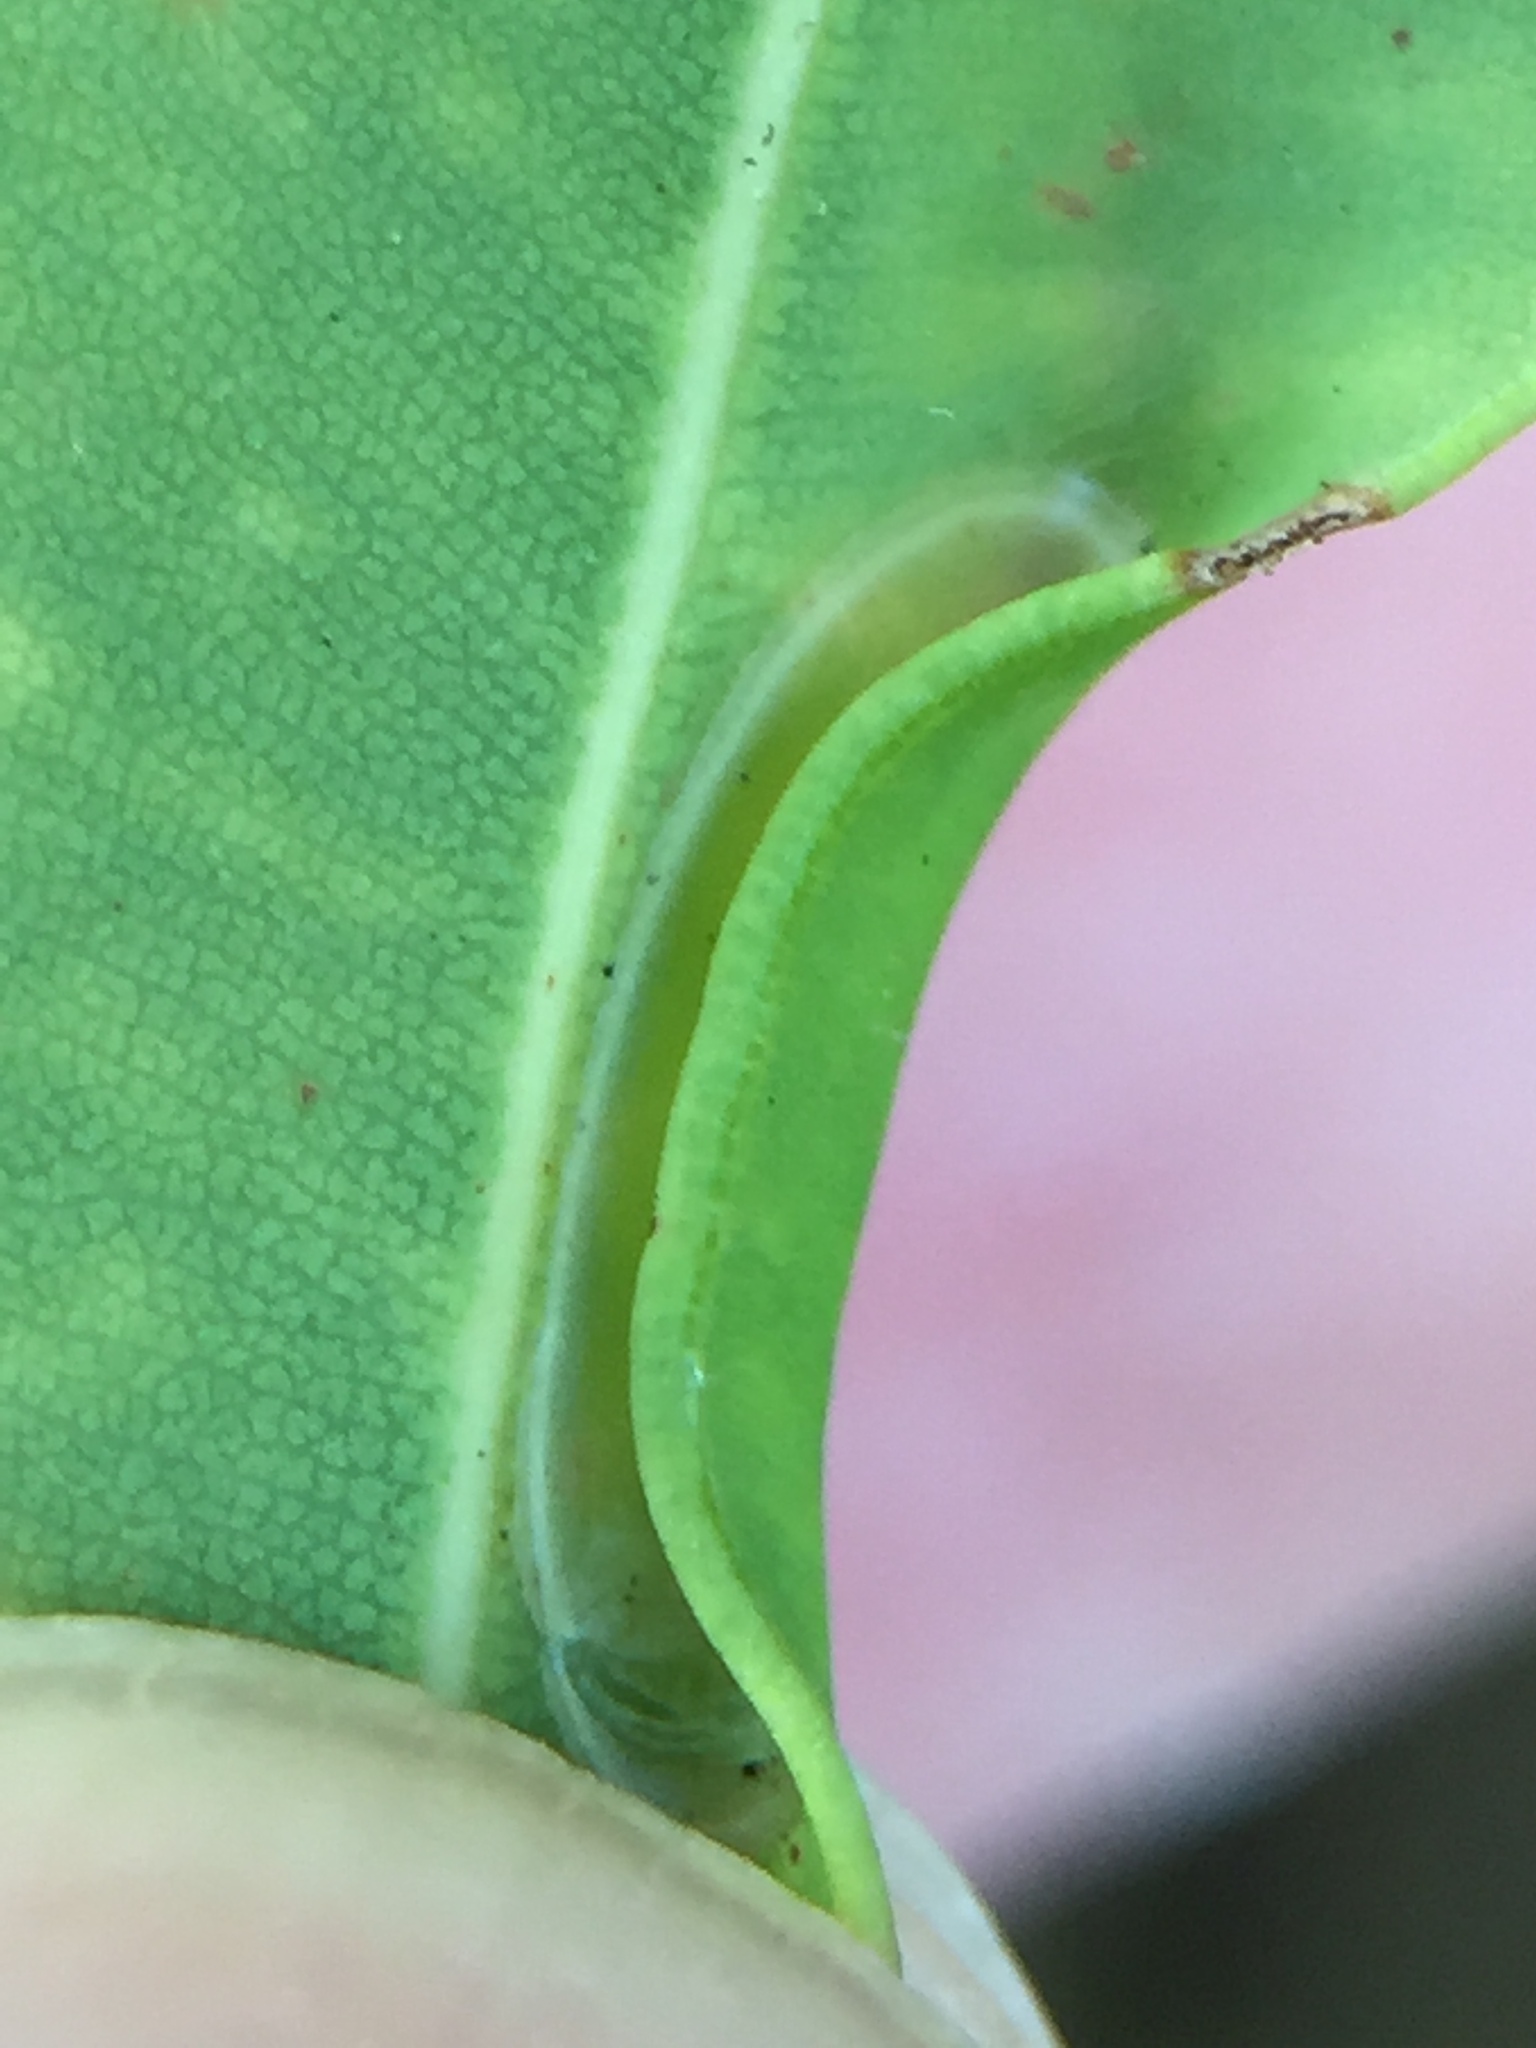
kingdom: Animalia
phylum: Arthropoda
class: Insecta
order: Lepidoptera
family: Gracillariidae
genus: Macarostola
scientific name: Macarostola ida
